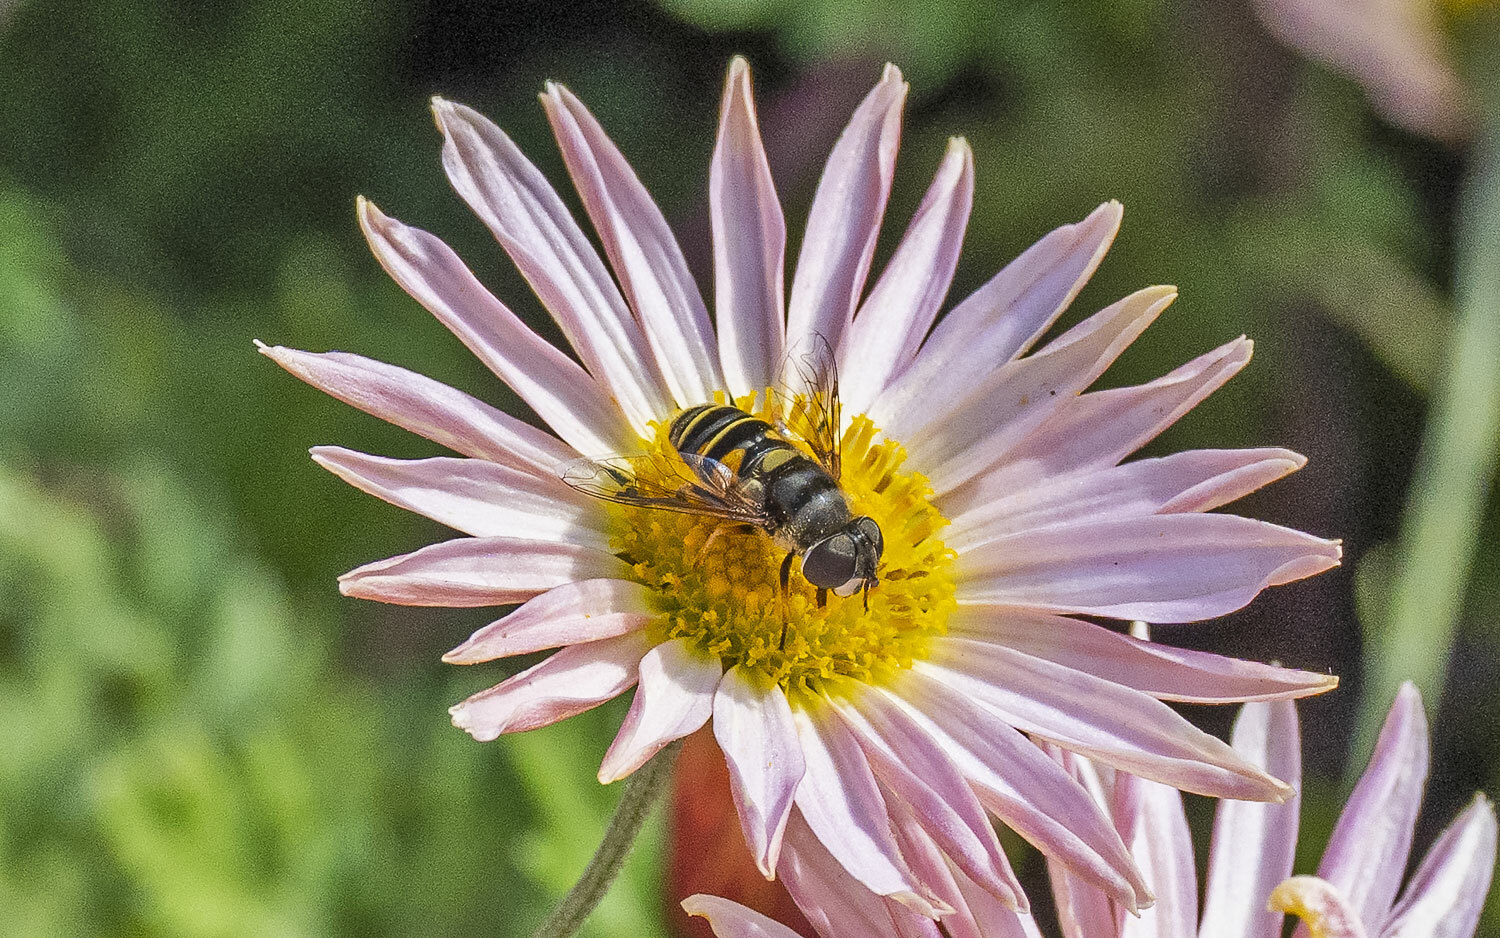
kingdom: Animalia
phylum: Arthropoda
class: Insecta
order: Diptera
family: Syrphidae
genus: Eristalis
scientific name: Eristalis transversa
